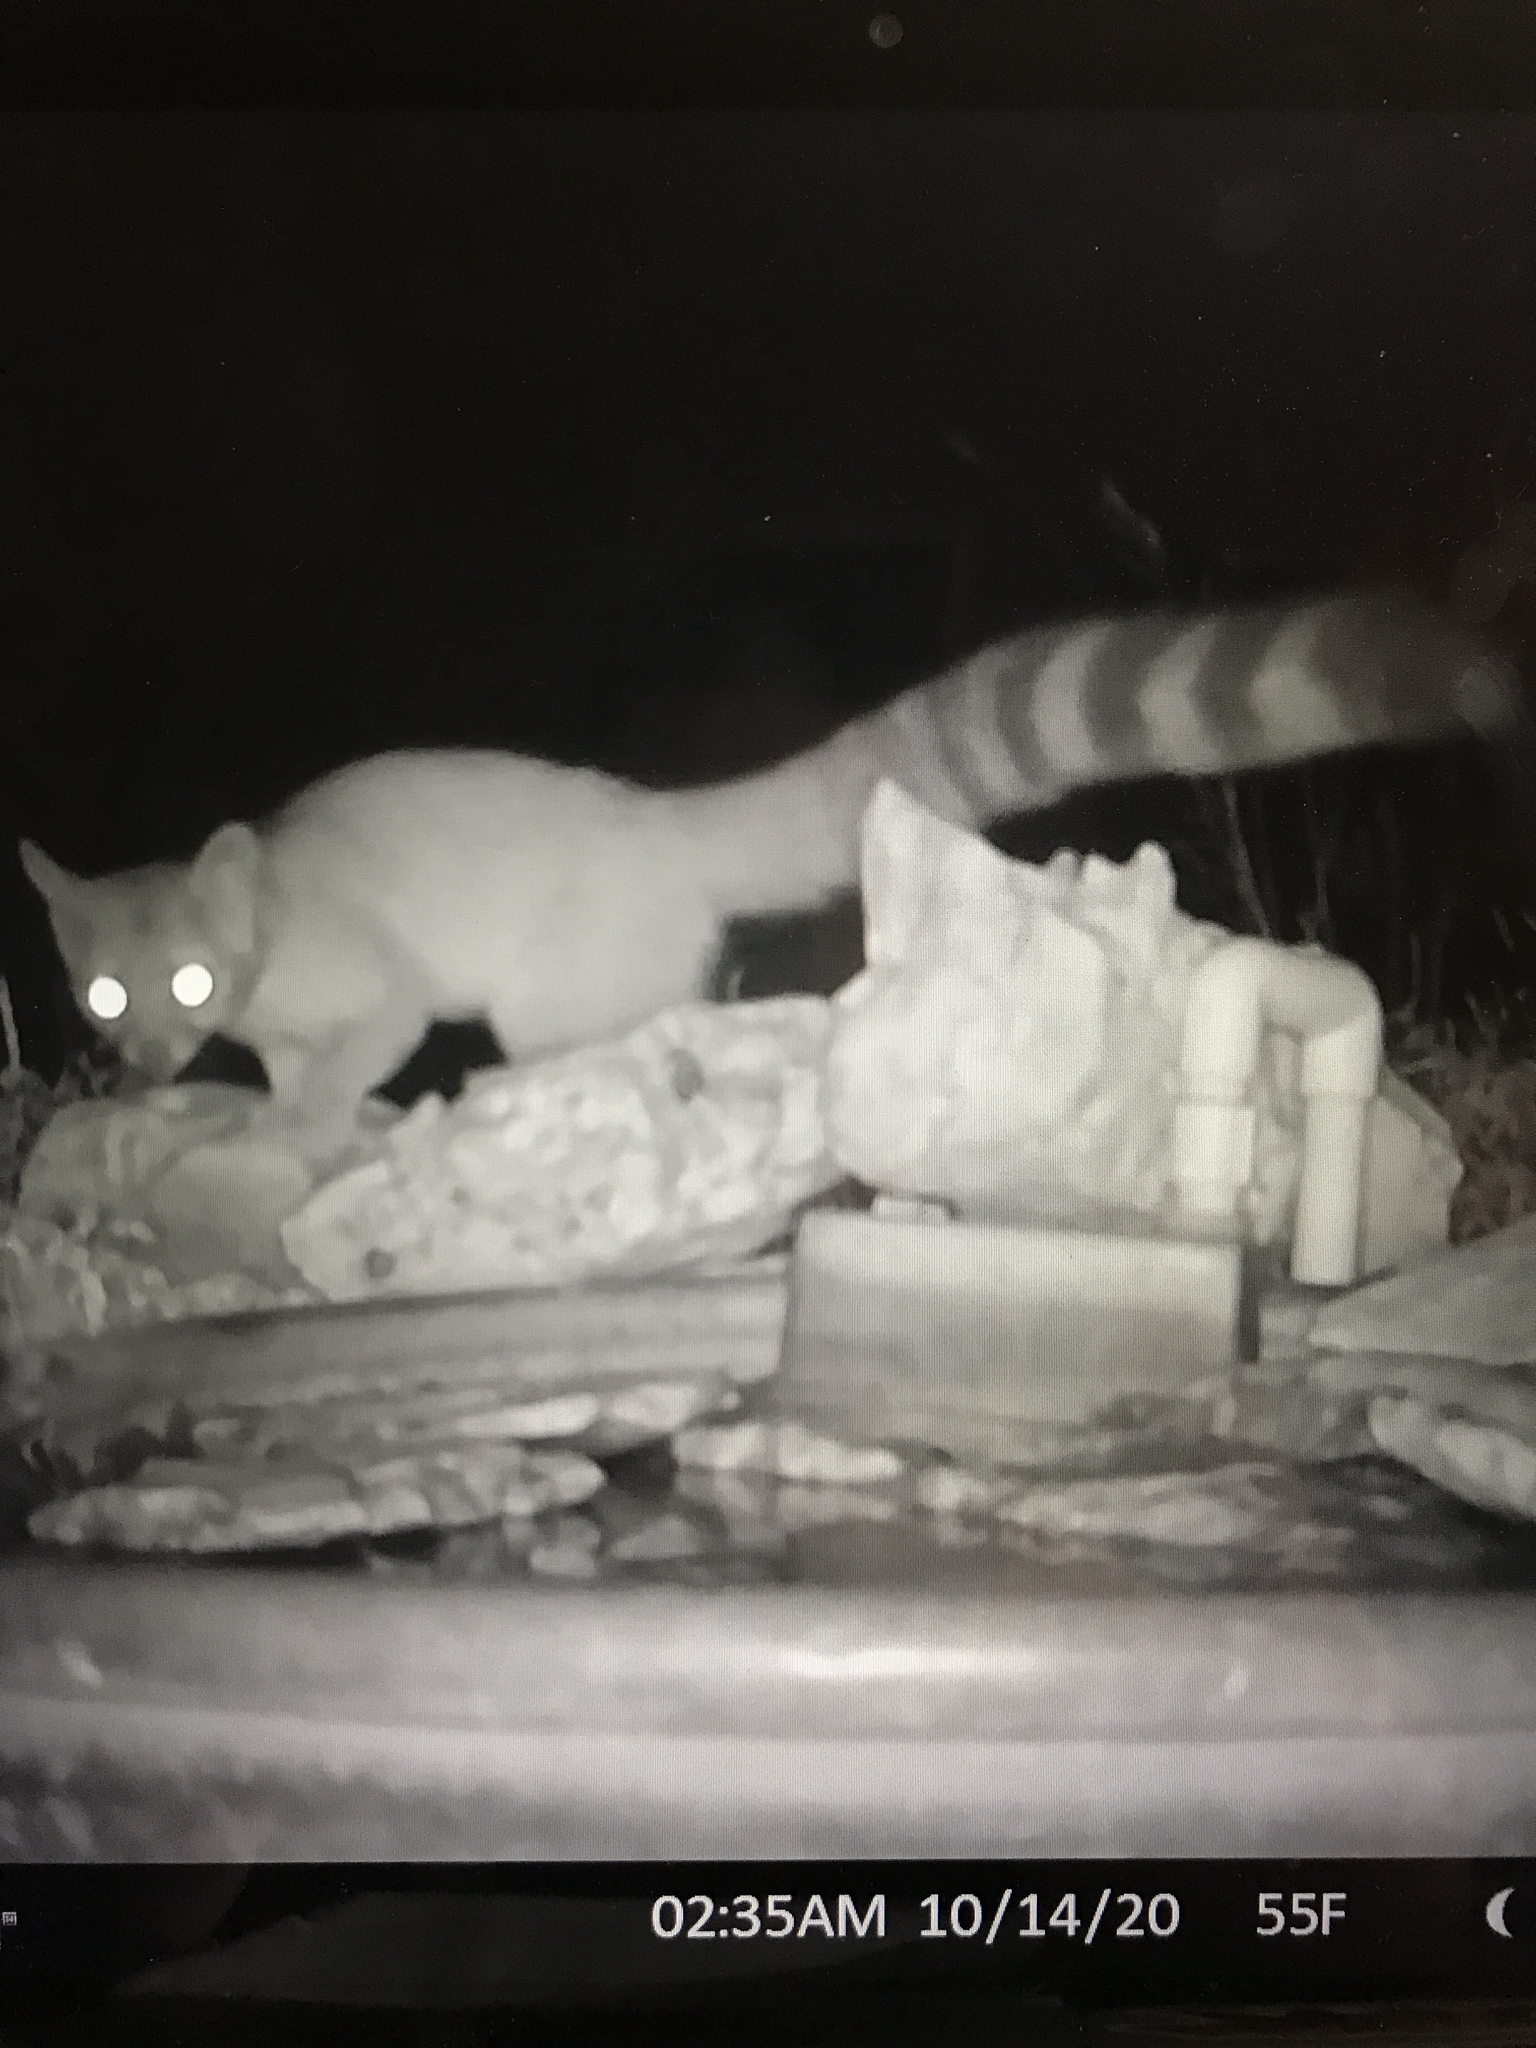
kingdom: Animalia
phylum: Chordata
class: Mammalia
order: Carnivora
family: Procyonidae
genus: Bassariscus
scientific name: Bassariscus astutus
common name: Ringtail
